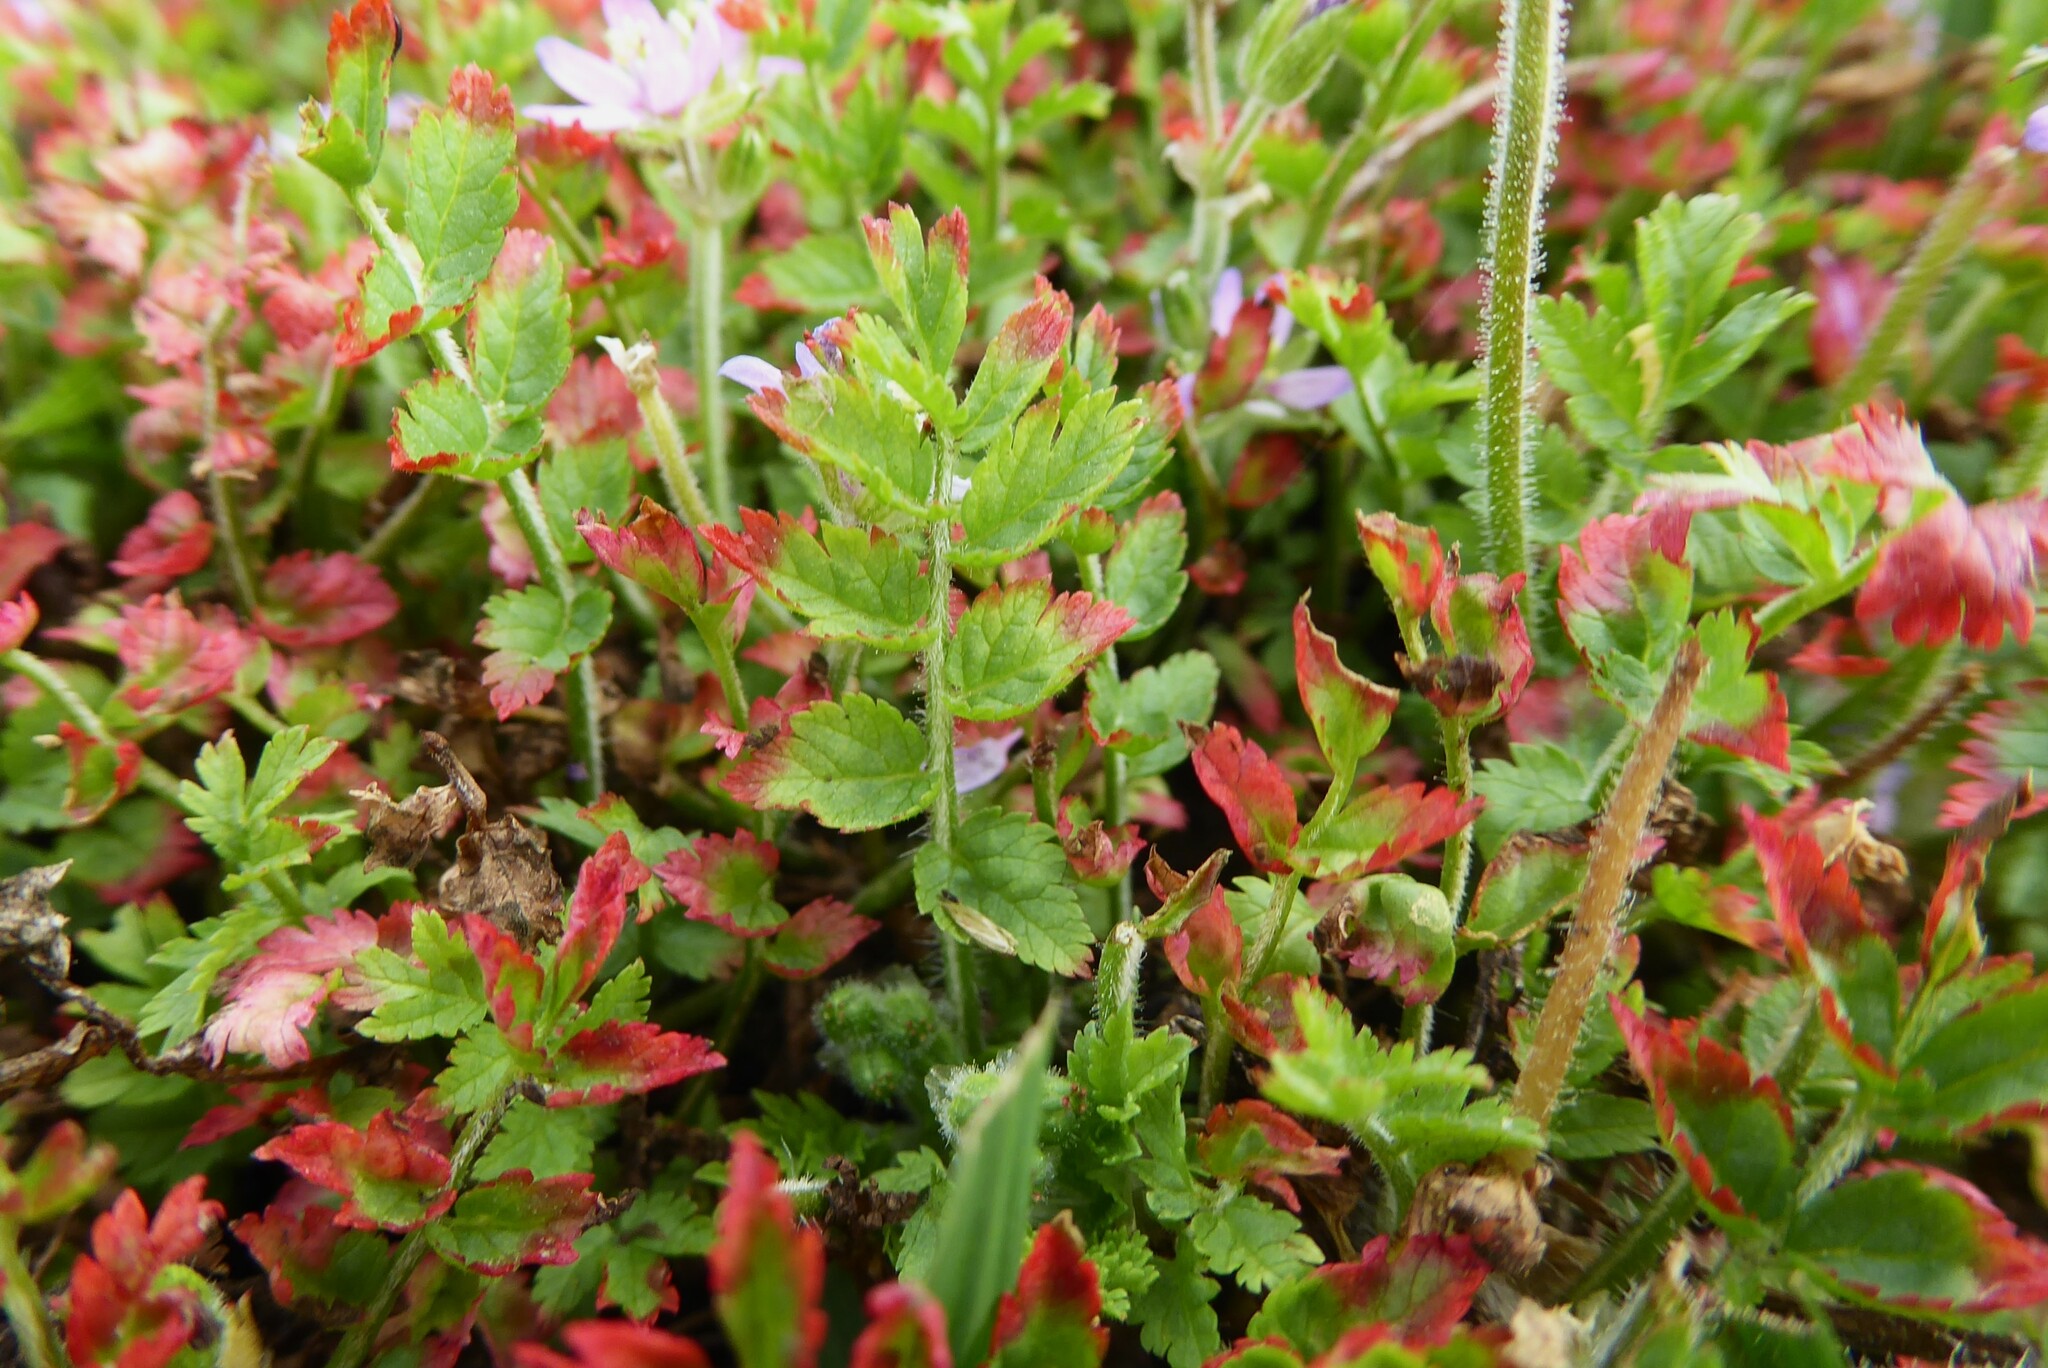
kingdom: Plantae
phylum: Tracheophyta
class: Magnoliopsida
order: Geraniales
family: Geraniaceae
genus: Erodium
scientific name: Erodium moschatum
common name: Musk stork's-bill
